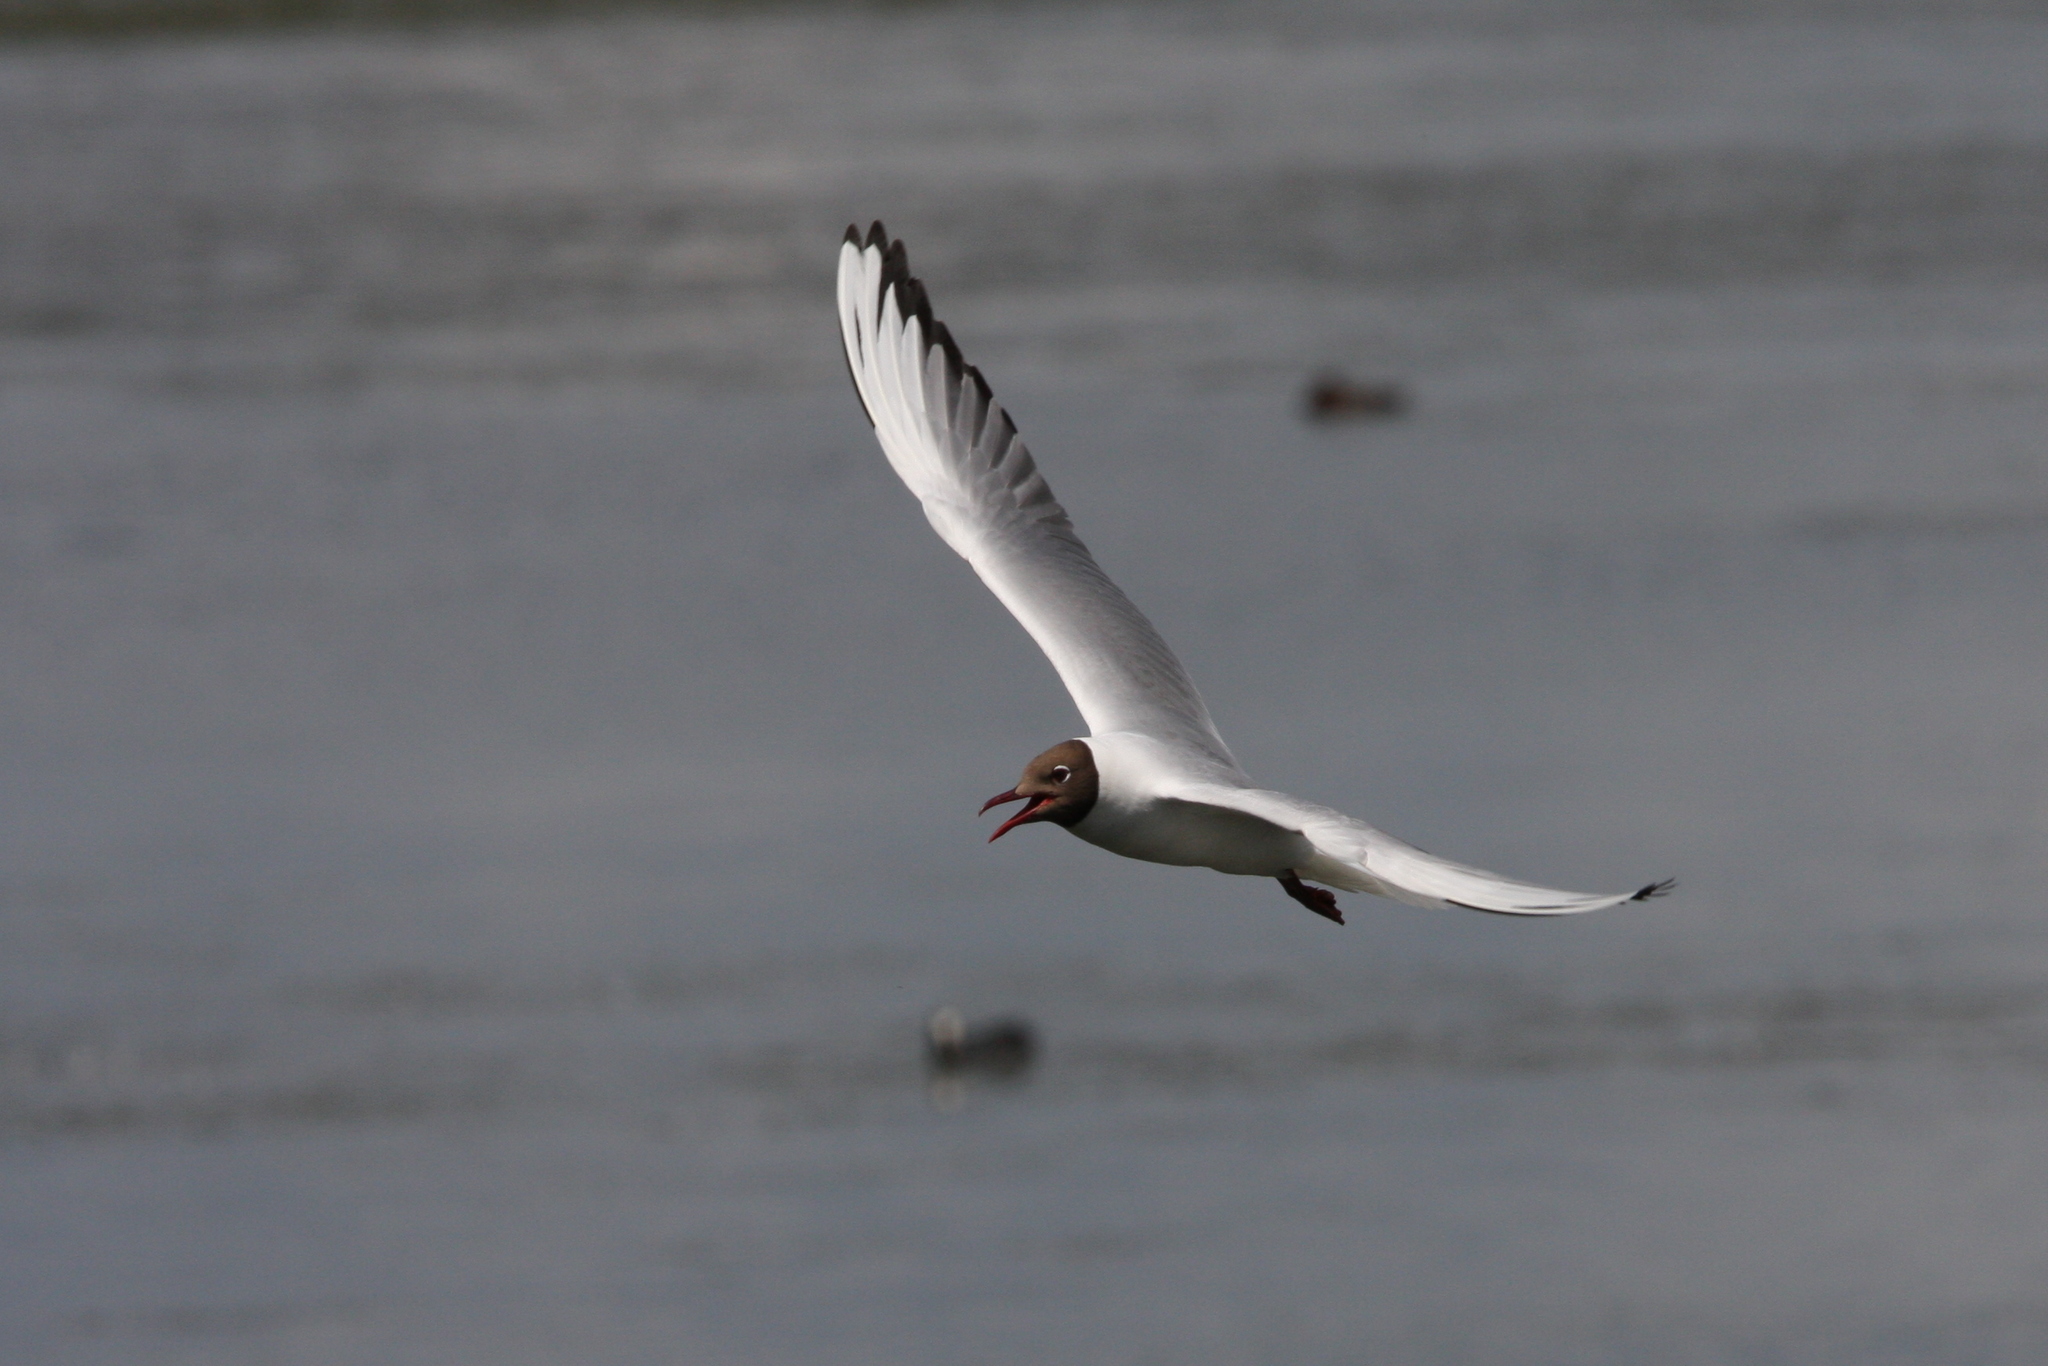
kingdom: Animalia
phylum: Chordata
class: Aves
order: Charadriiformes
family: Laridae
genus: Chroicocephalus
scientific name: Chroicocephalus ridibundus
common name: Black-headed gull
